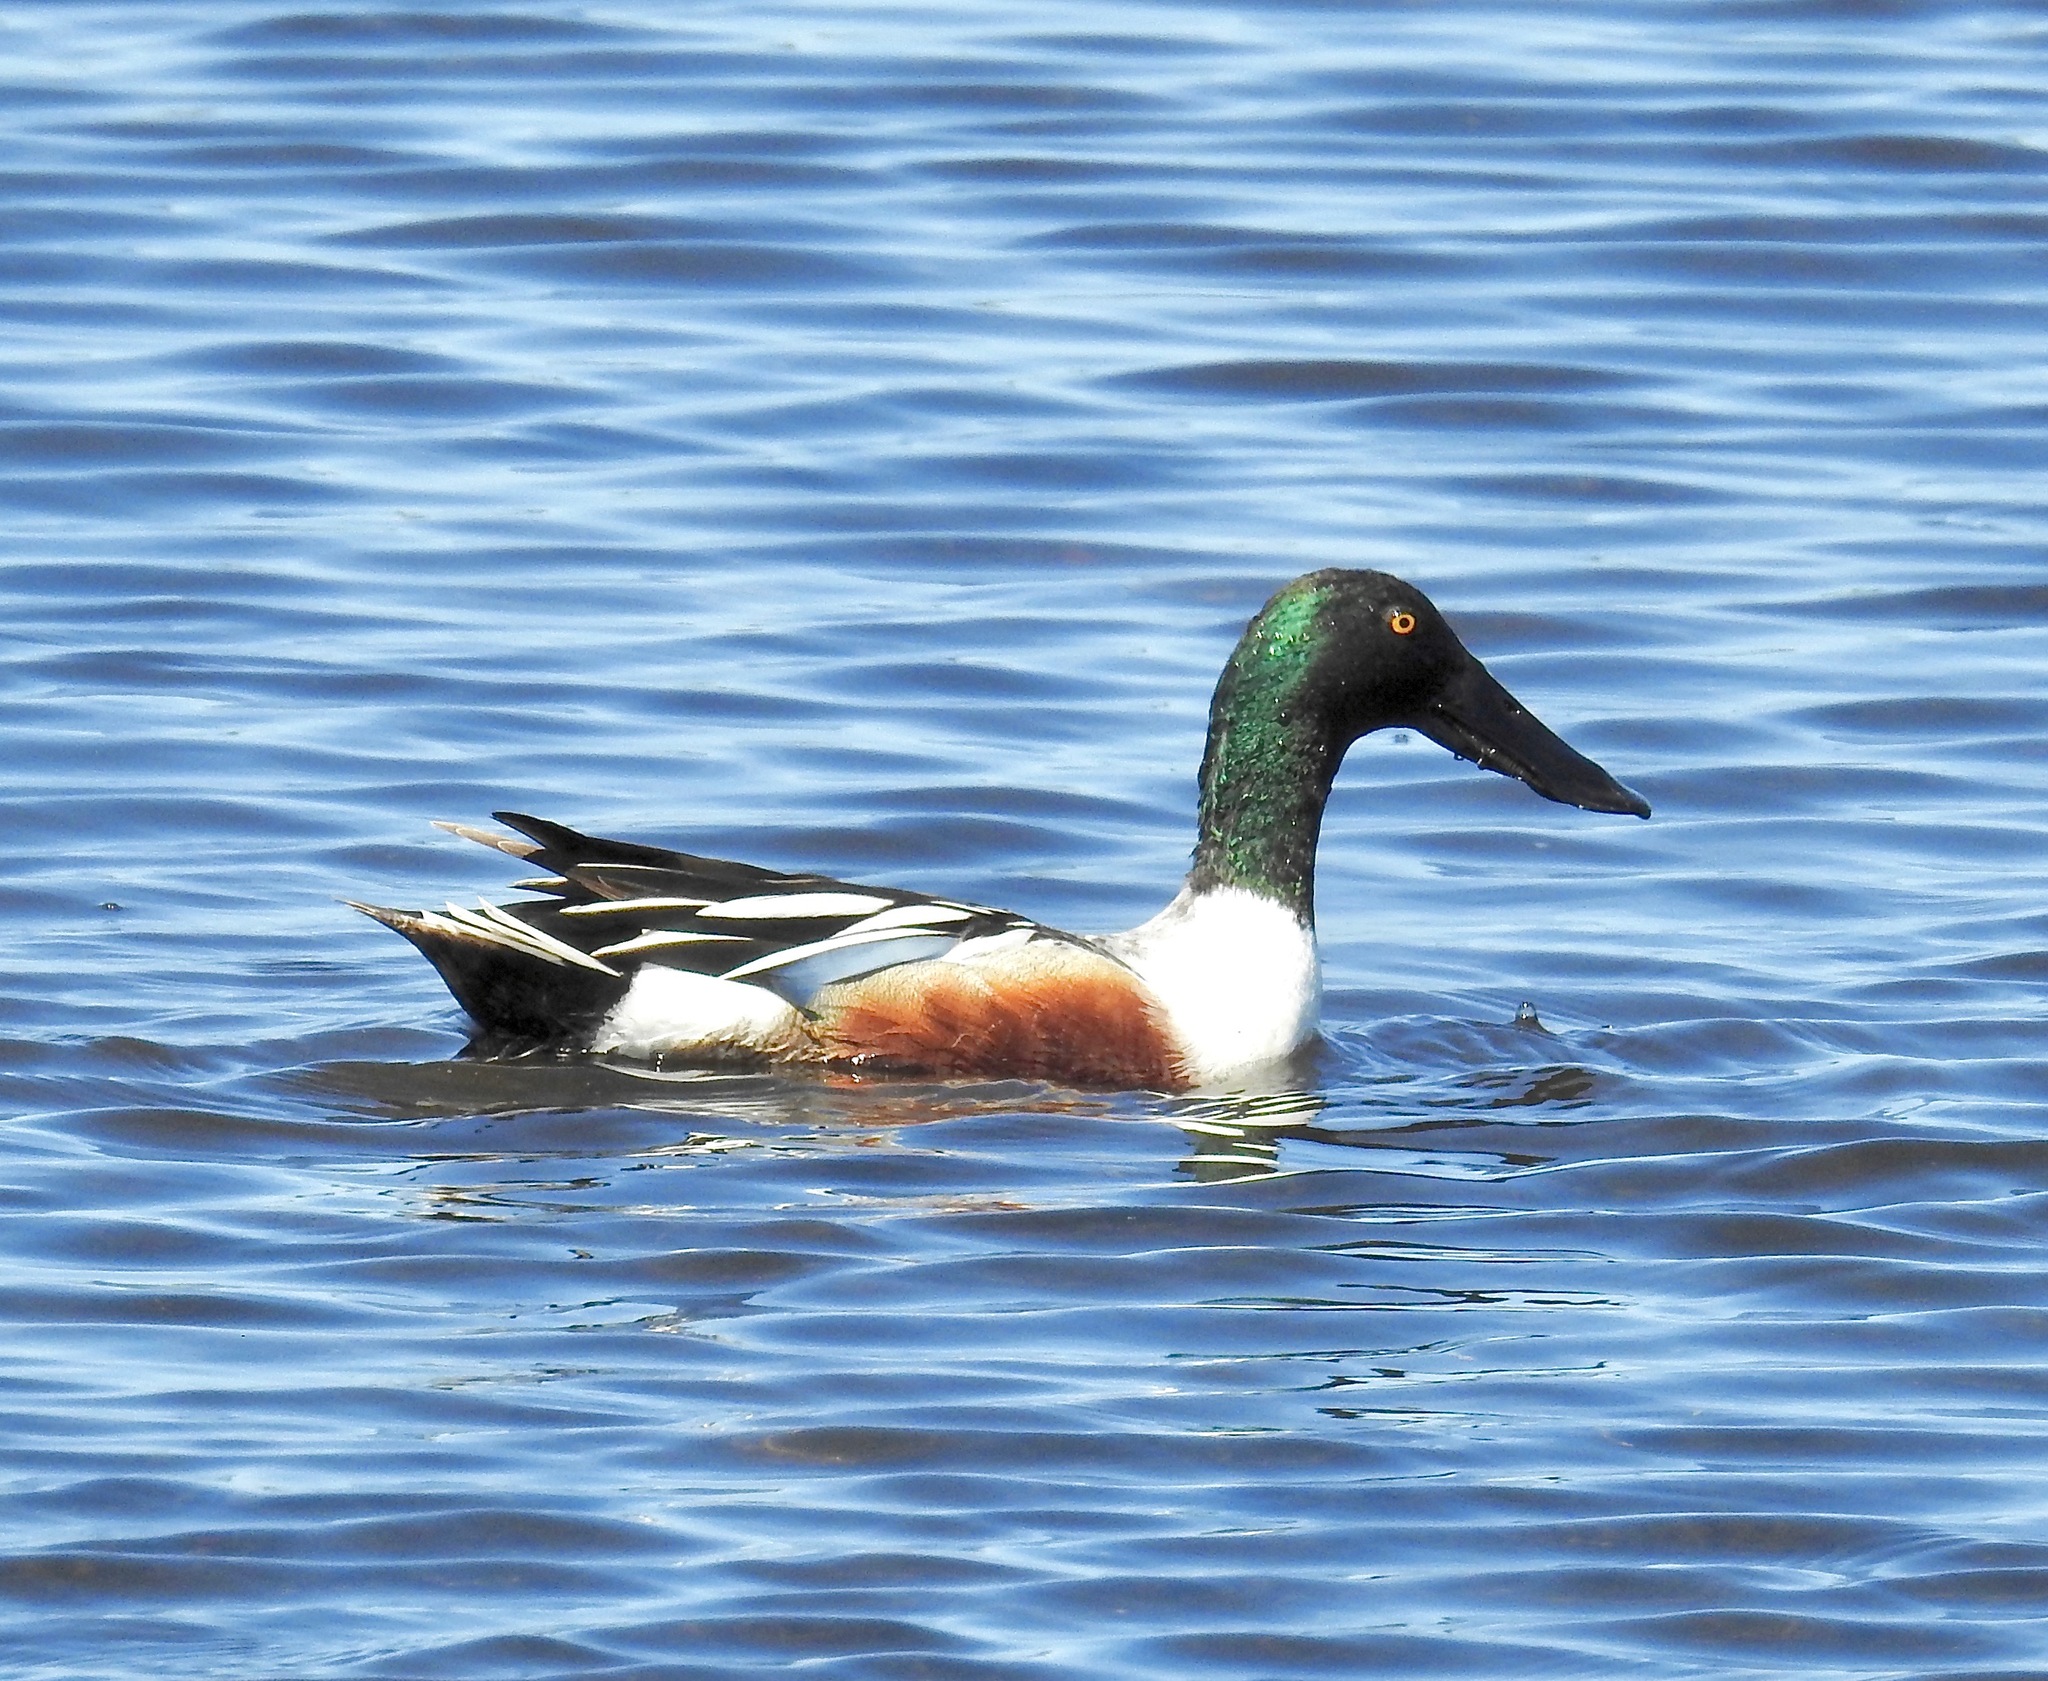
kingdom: Animalia
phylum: Chordata
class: Aves
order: Anseriformes
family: Anatidae
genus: Spatula
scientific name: Spatula clypeata
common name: Northern shoveler
